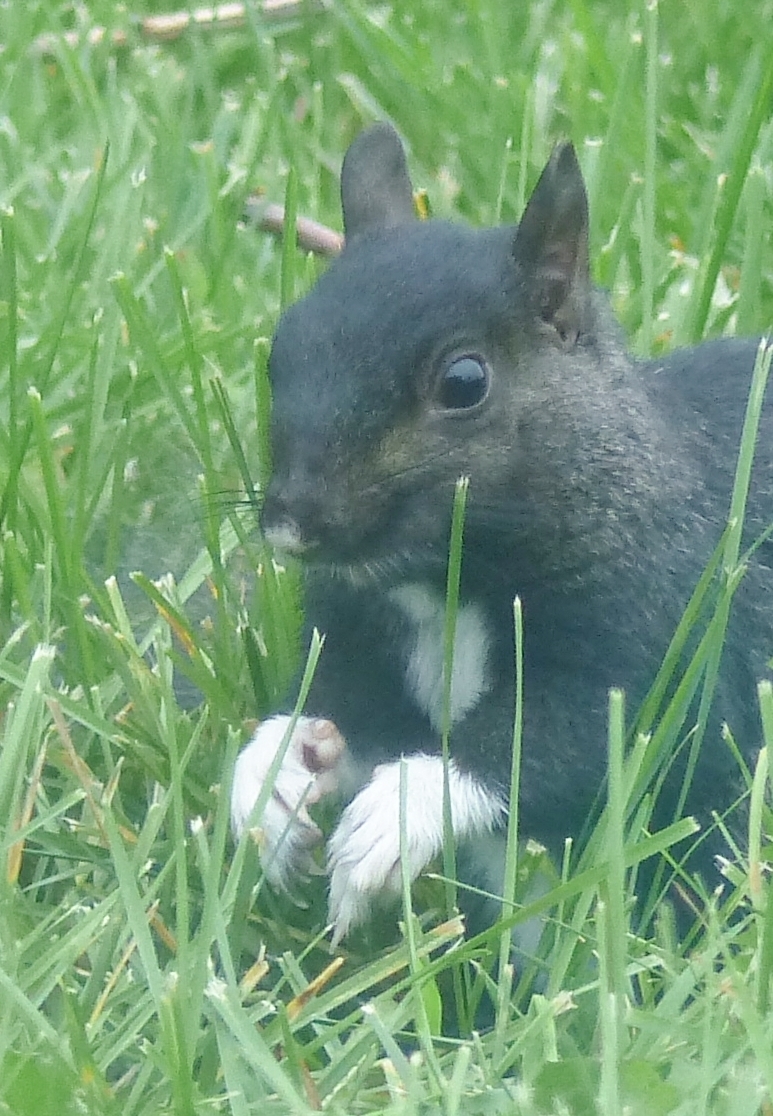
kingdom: Animalia
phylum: Chordata
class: Mammalia
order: Rodentia
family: Sciuridae
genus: Sciurus
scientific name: Sciurus carolinensis
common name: Eastern gray squirrel
